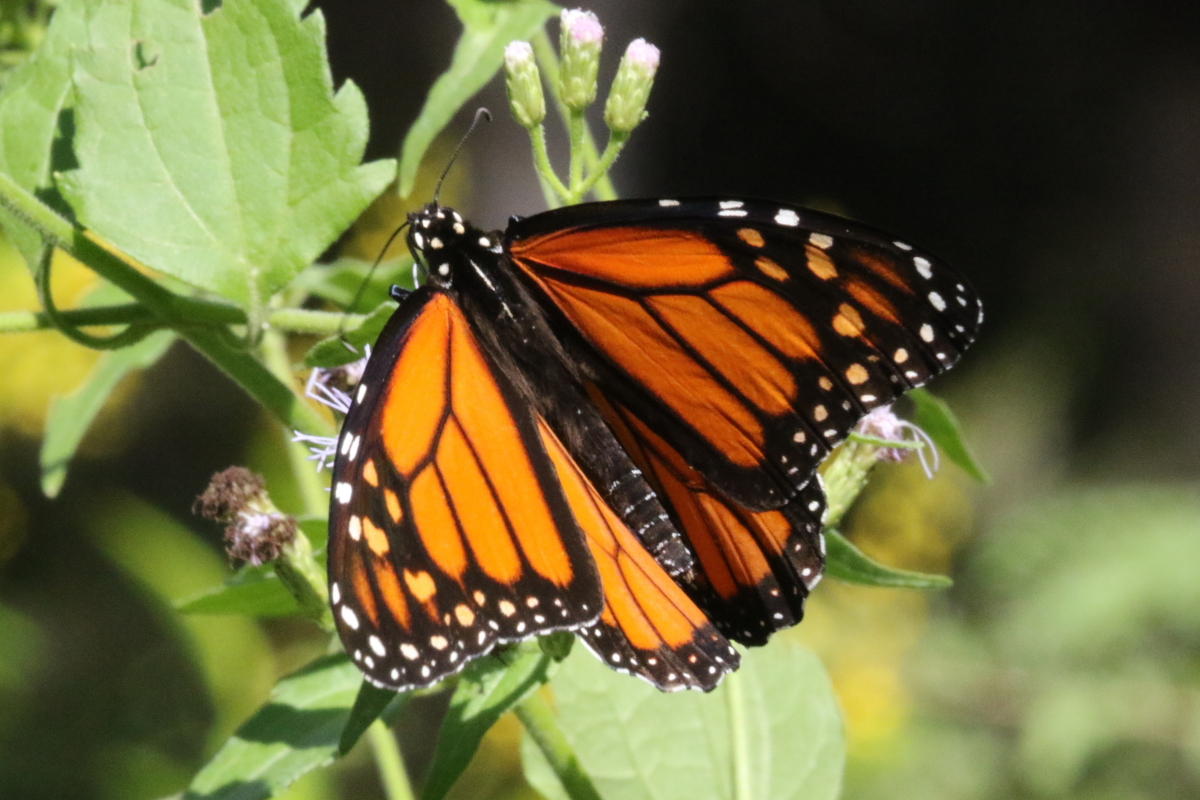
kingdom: Animalia
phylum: Arthropoda
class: Insecta
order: Lepidoptera
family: Nymphalidae
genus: Danaus
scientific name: Danaus plexippus
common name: Monarch
